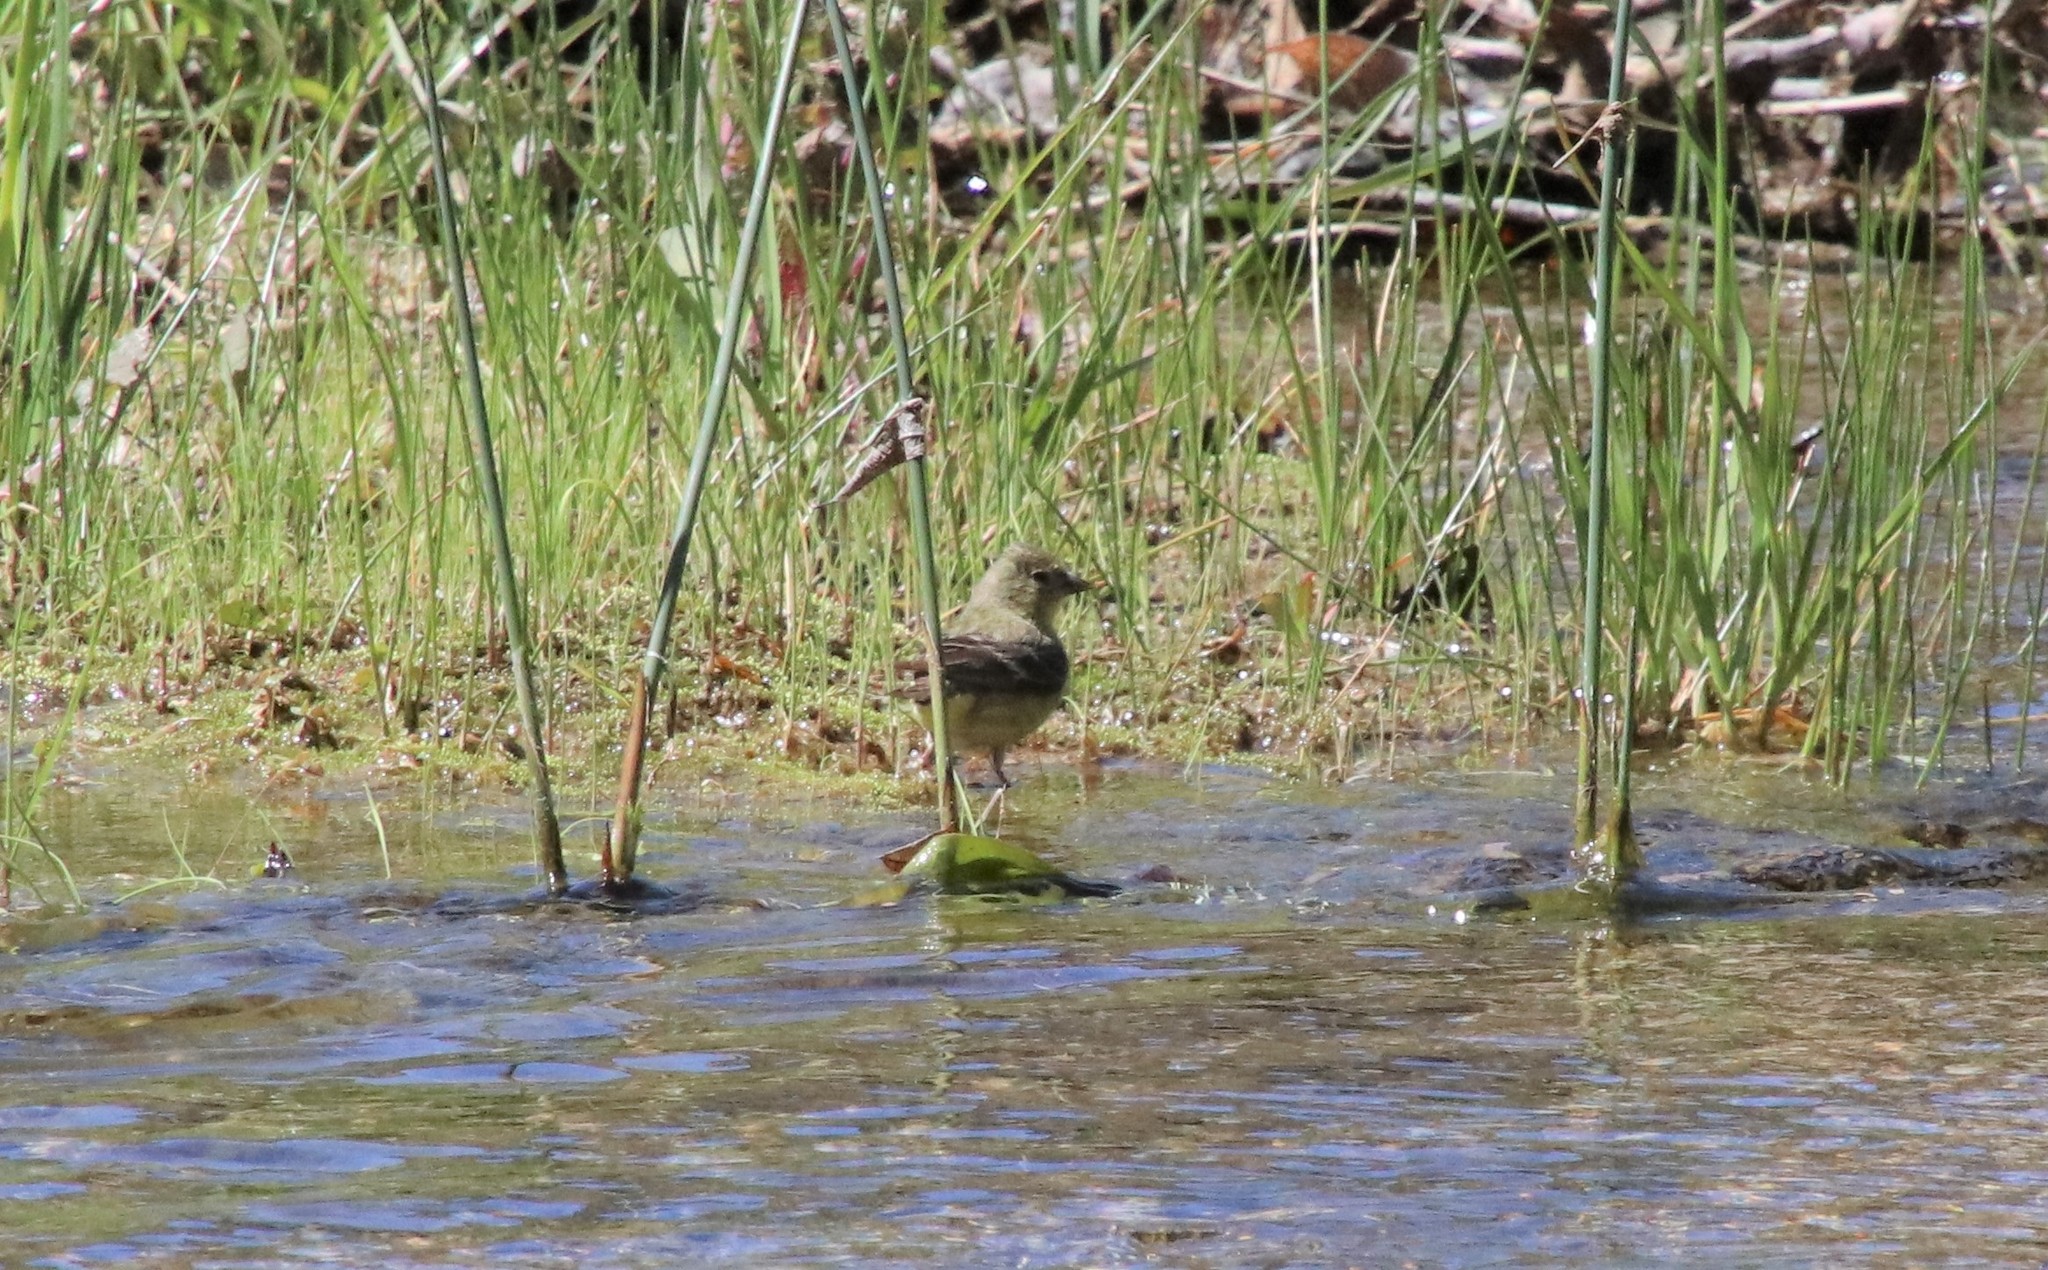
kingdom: Animalia
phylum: Chordata
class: Aves
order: Passeriformes
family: Fringillidae
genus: Spinus
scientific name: Spinus psaltria
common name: Lesser goldfinch
